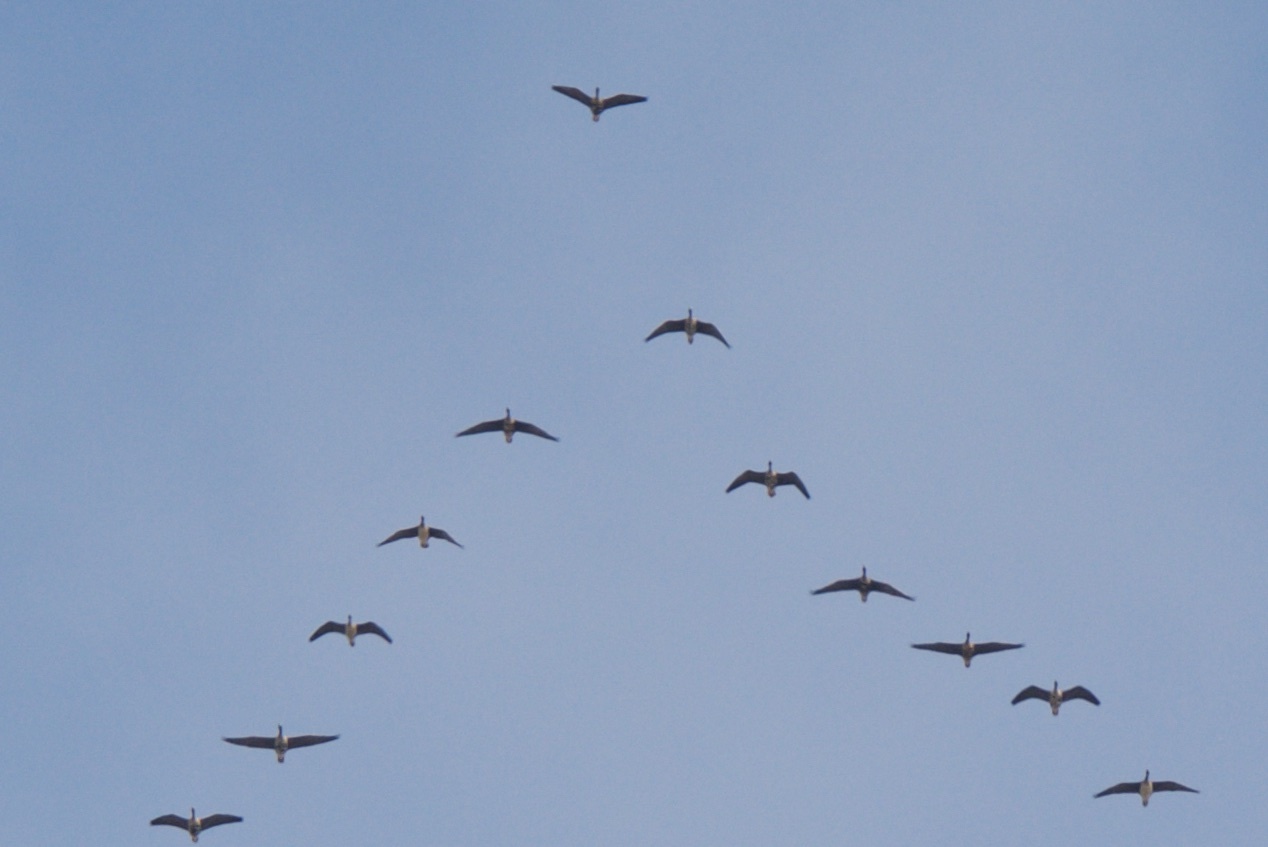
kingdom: Animalia
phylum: Chordata
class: Aves
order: Anseriformes
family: Anatidae
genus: Branta
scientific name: Branta canadensis
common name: Canada goose
